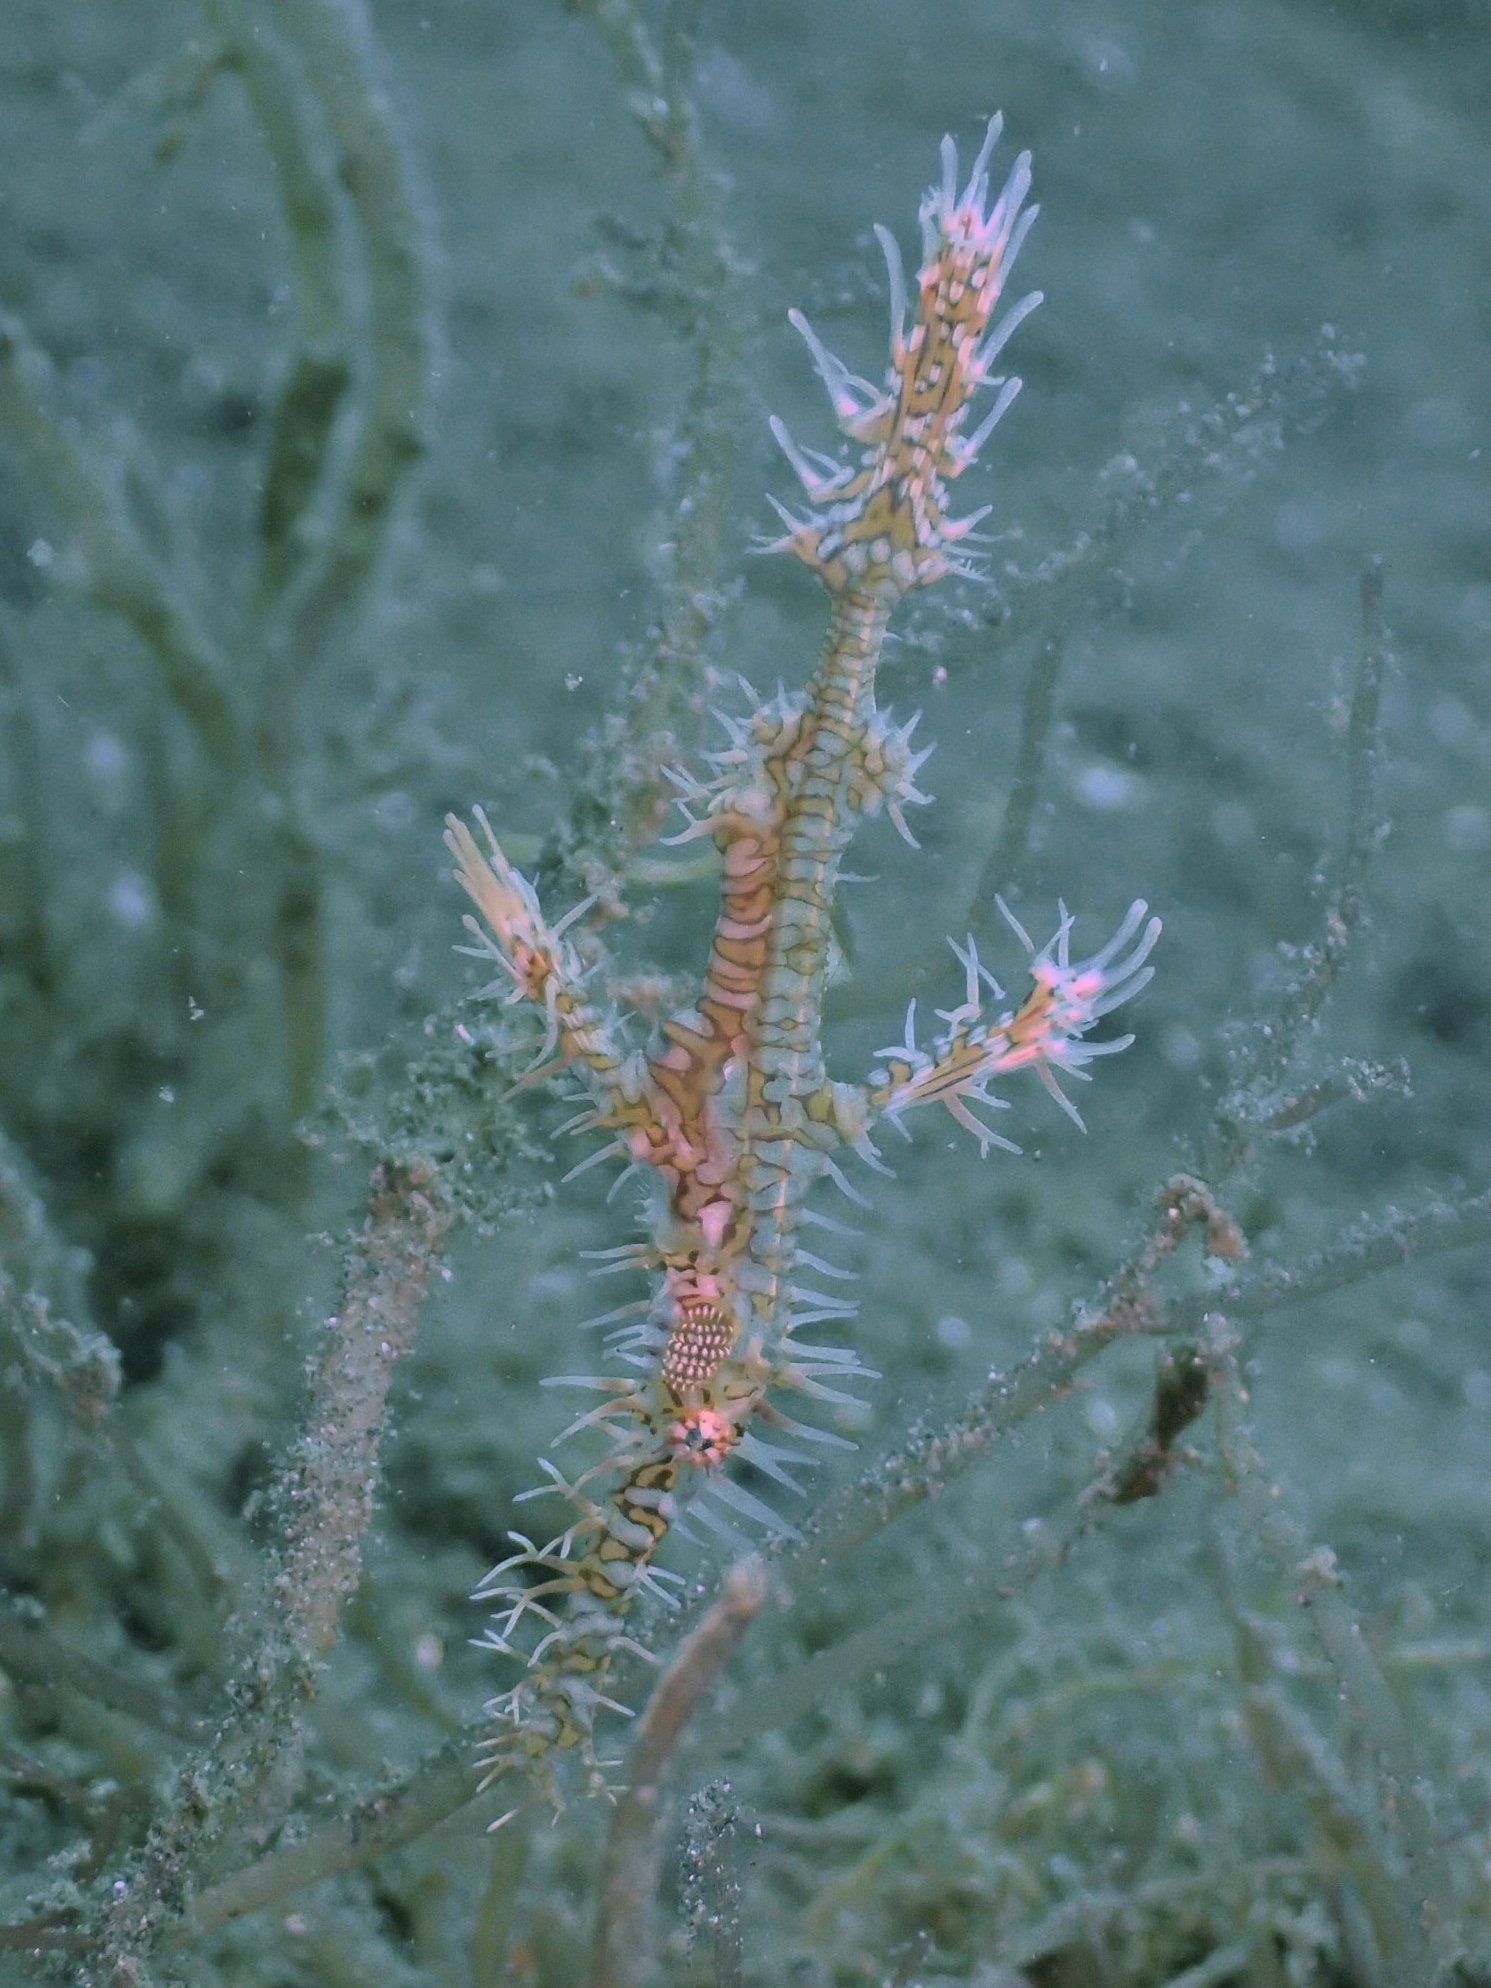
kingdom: Animalia
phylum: Chordata
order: Syngnathiformes
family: Solenostomidae
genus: Solenostomus
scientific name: Solenostomus paradoxus
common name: Ghost pipefish
